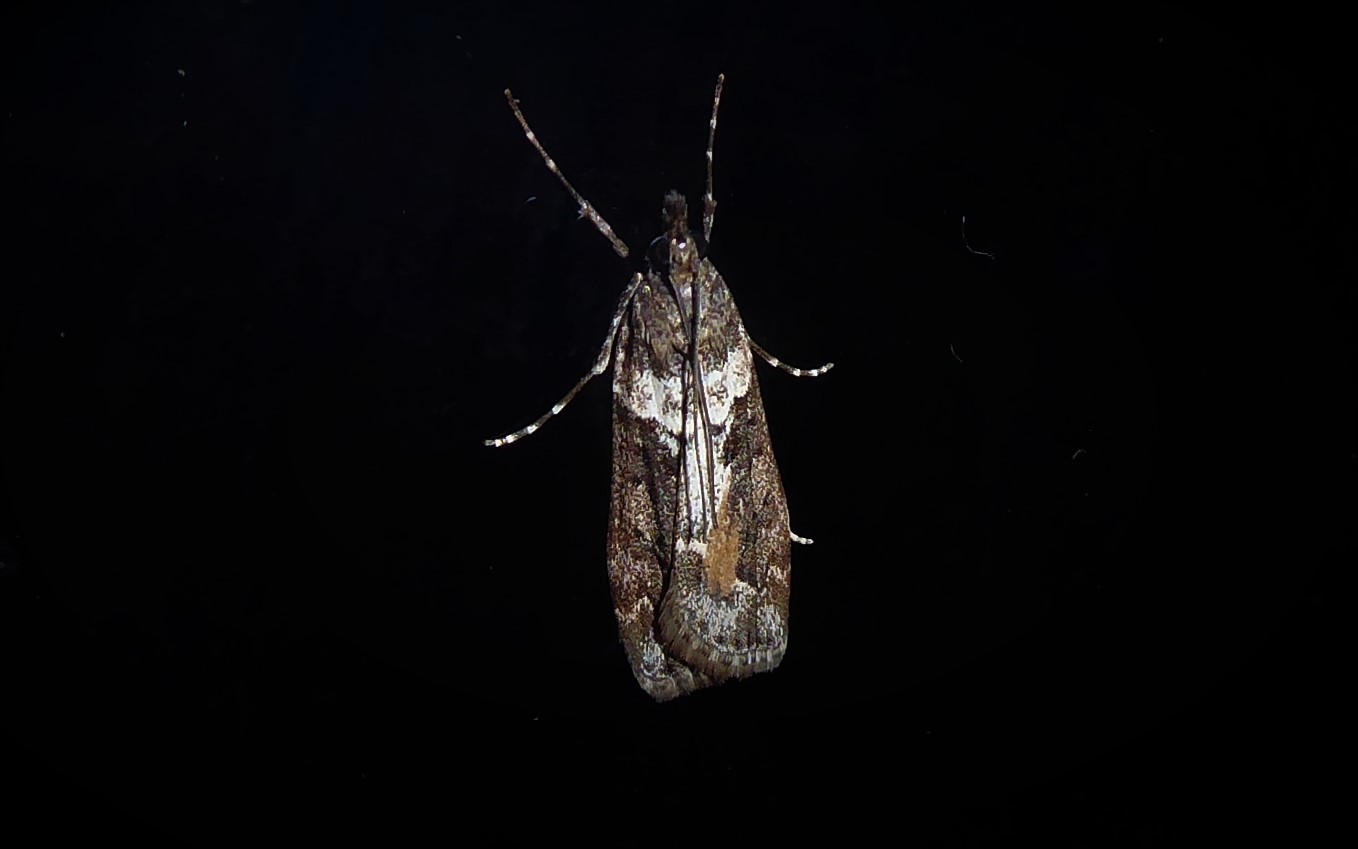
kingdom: Animalia
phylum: Arthropoda
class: Insecta
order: Lepidoptera
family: Crambidae
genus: Eudonia
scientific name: Eudonia submarginalis
